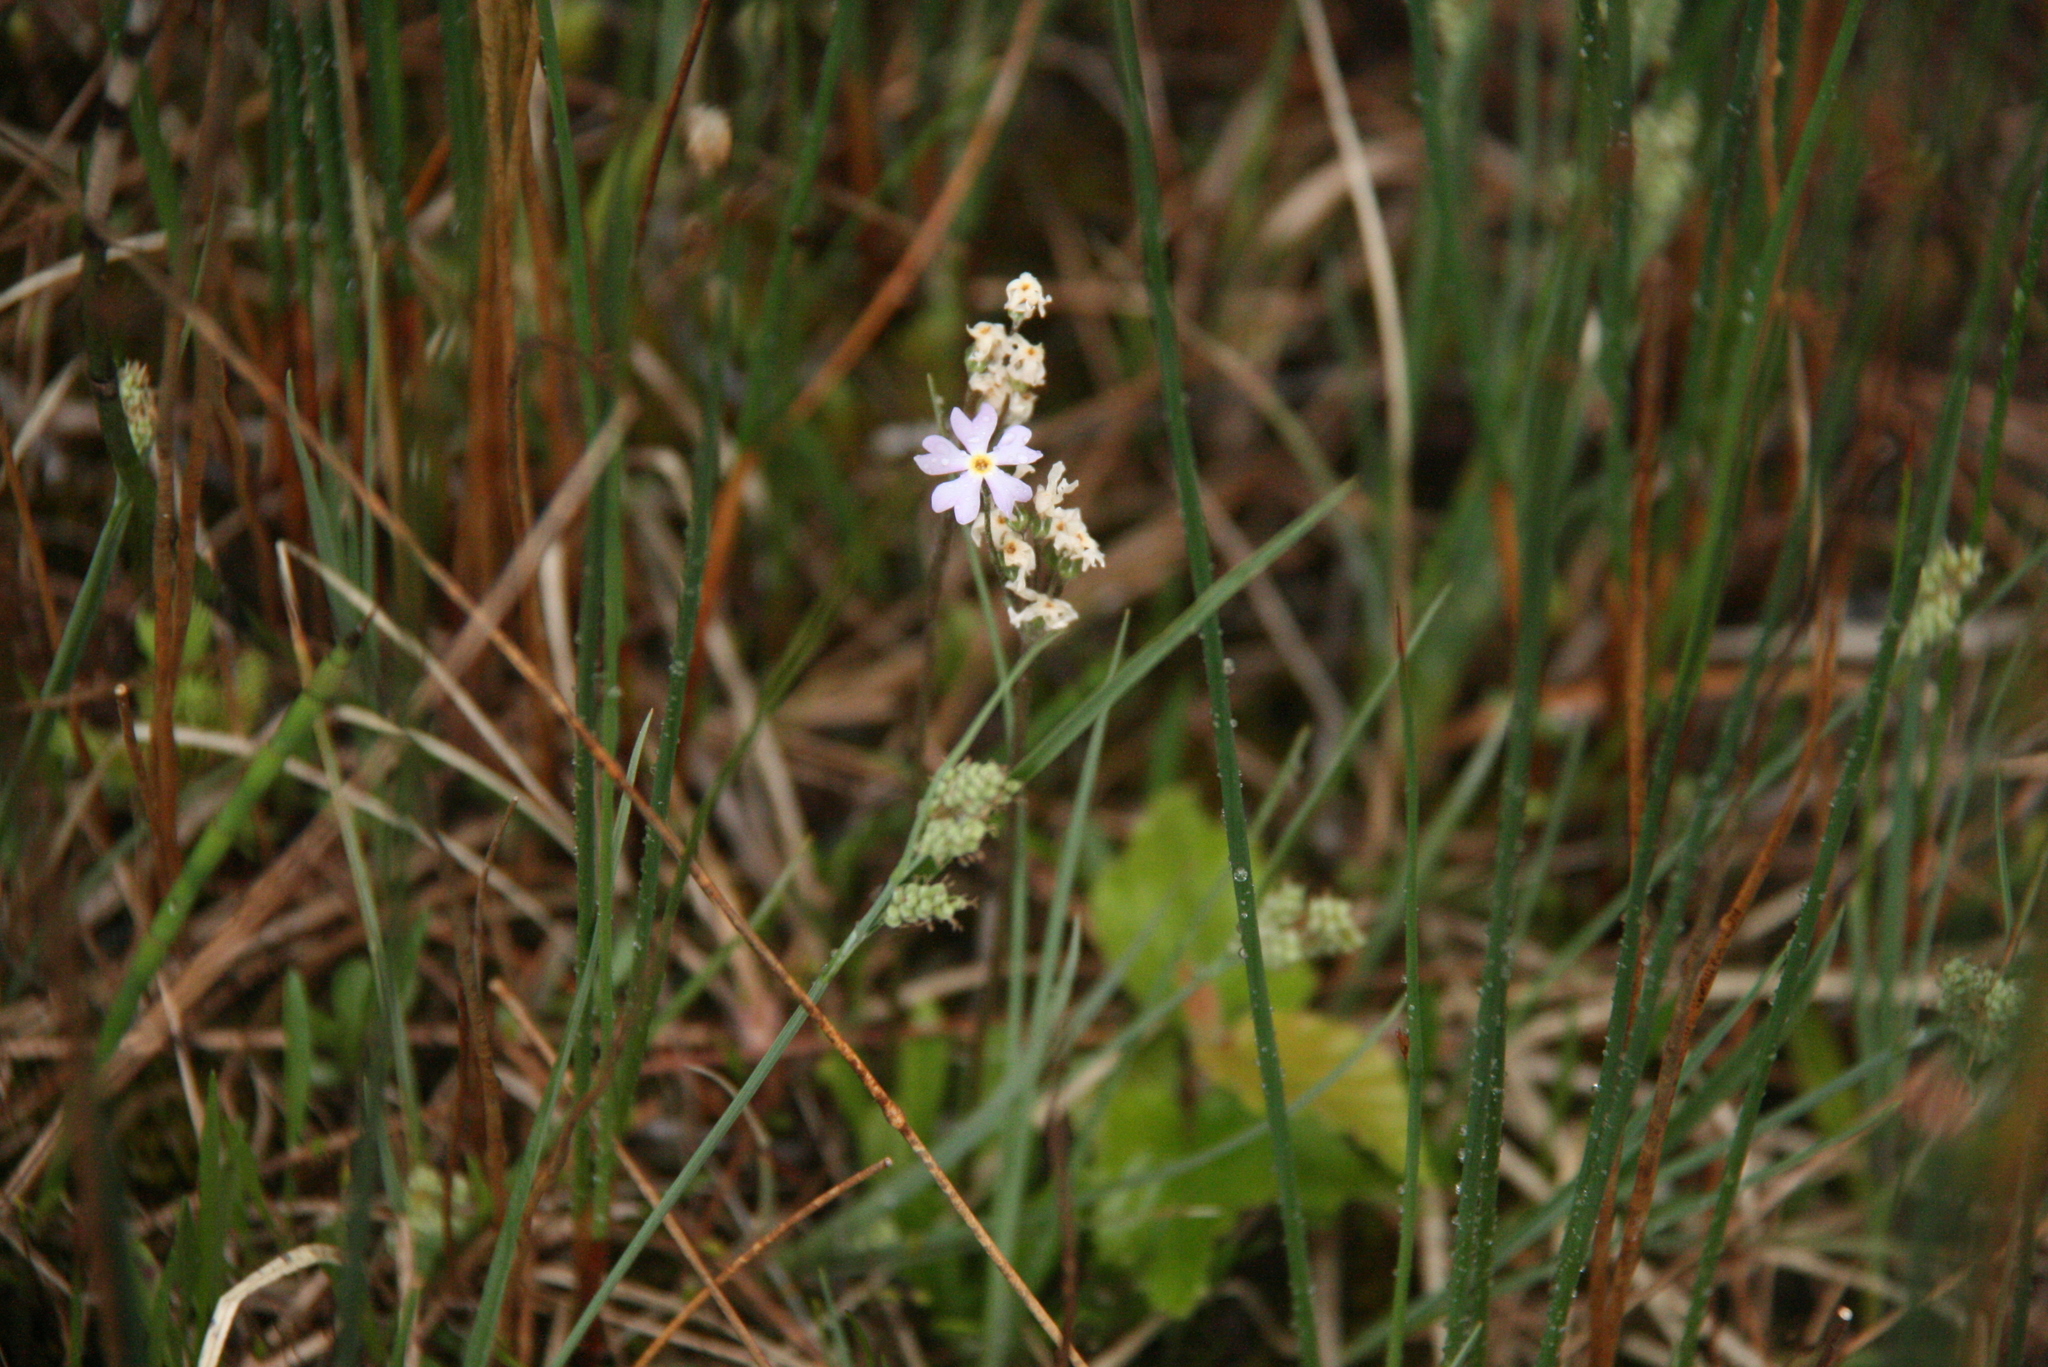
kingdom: Plantae
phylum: Tracheophyta
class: Magnoliopsida
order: Ericales
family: Primulaceae
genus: Primula
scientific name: Primula mistassinica
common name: Bird's-eye primrose
